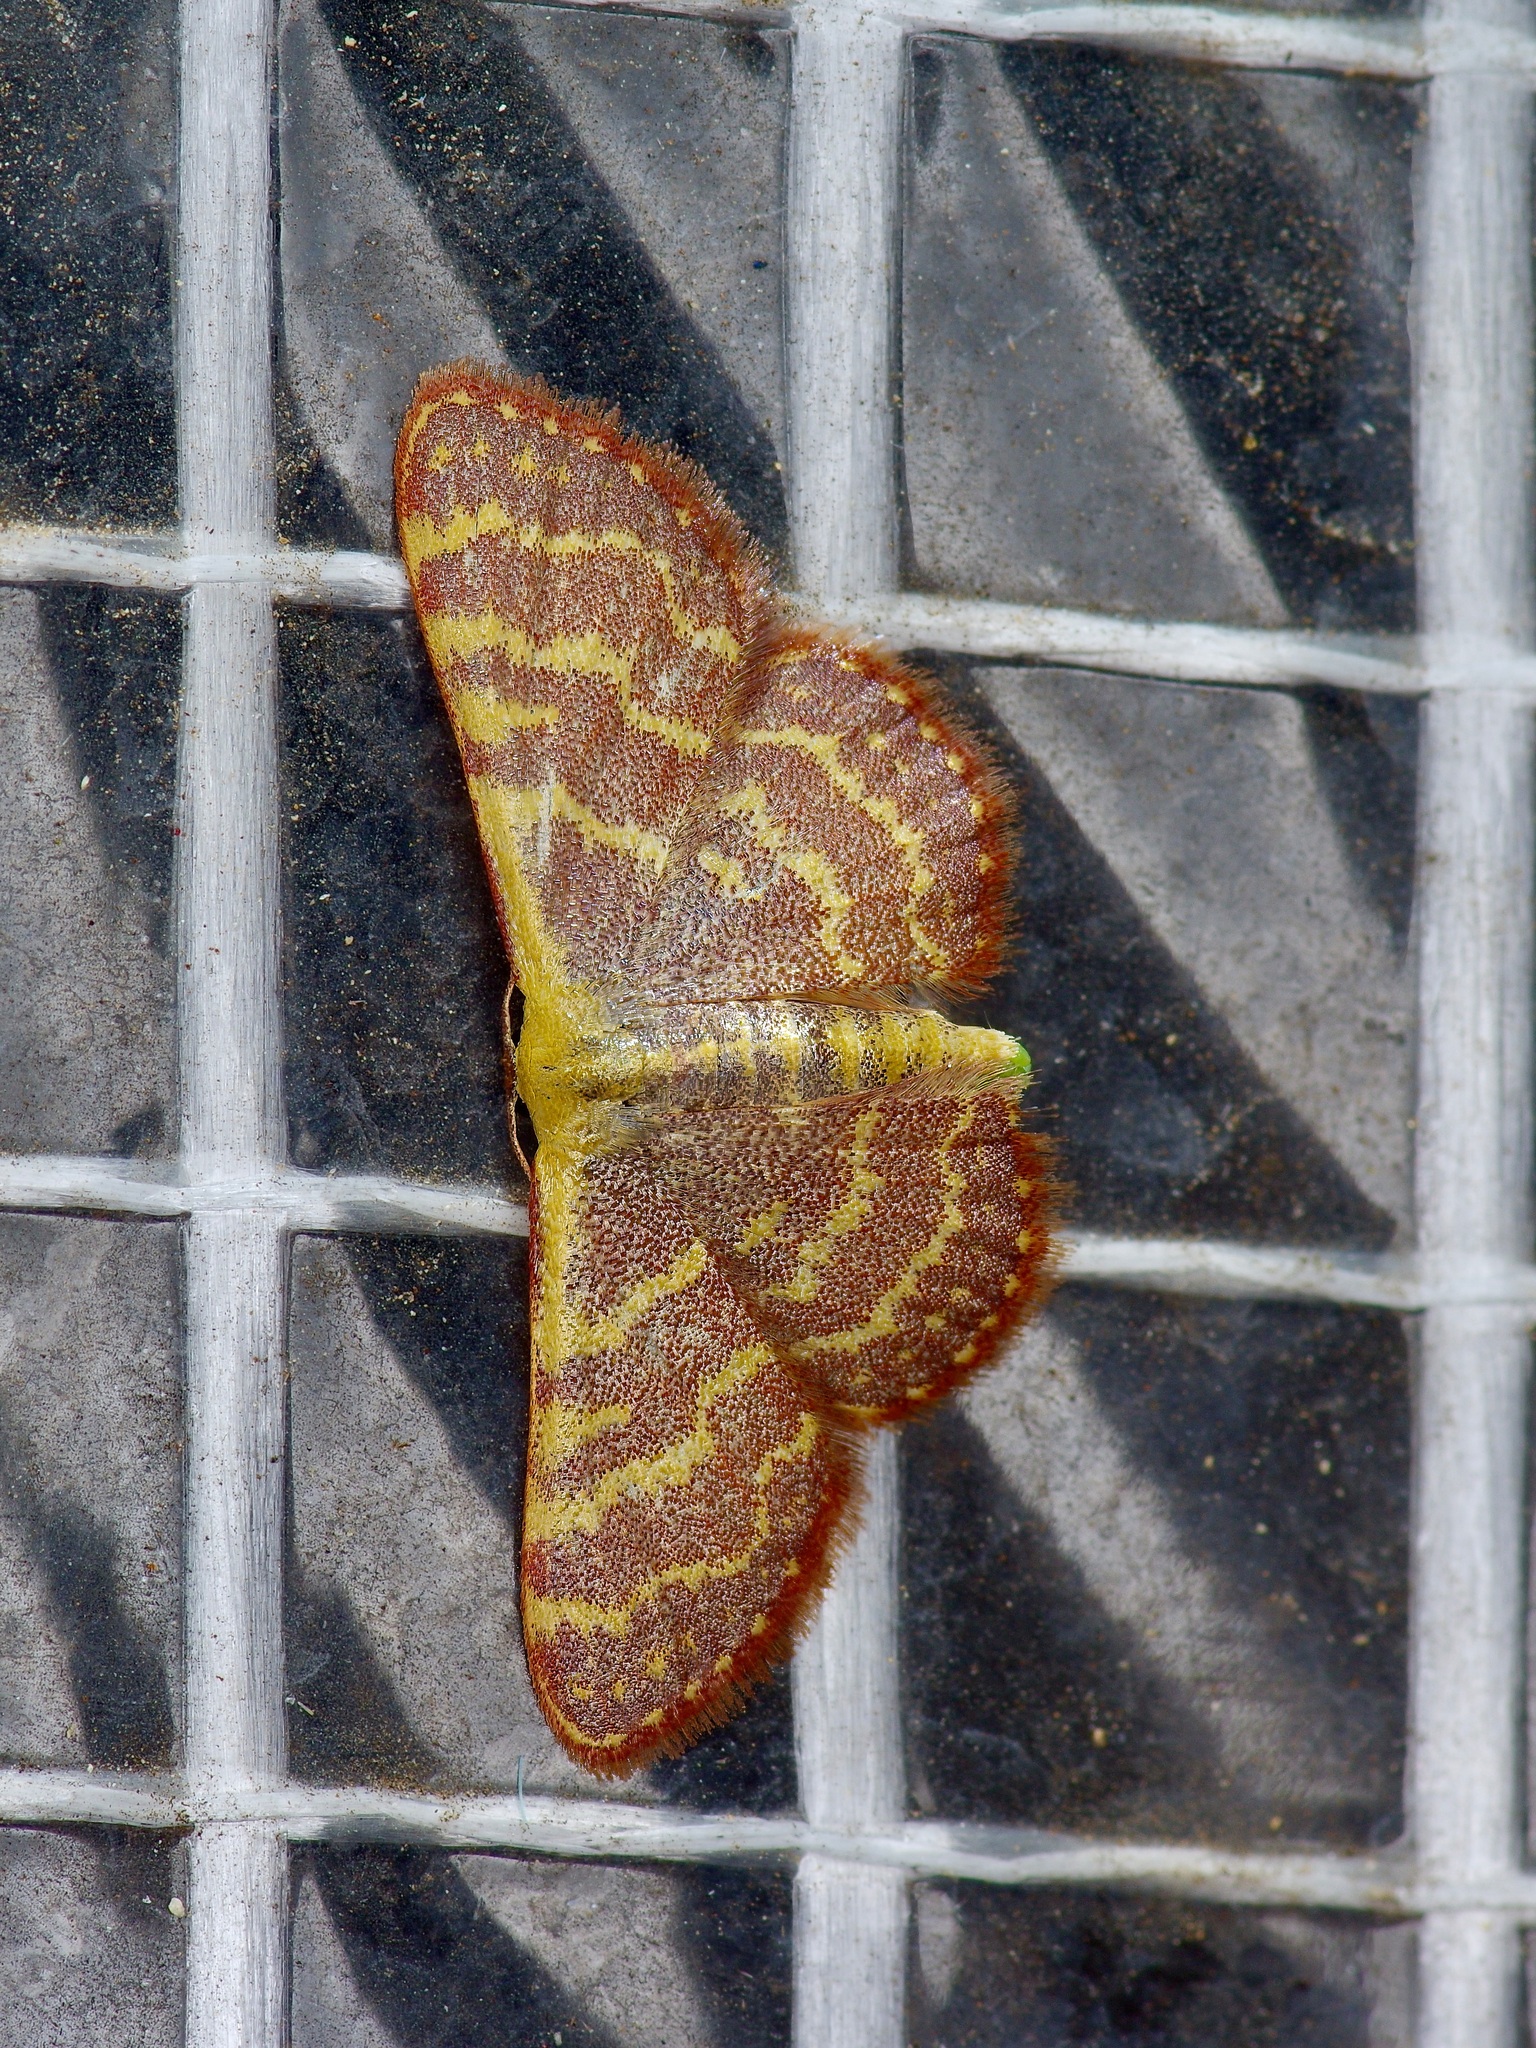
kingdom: Animalia
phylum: Arthropoda
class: Insecta
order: Lepidoptera
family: Geometridae
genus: Leptostales
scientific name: Leptostales pannaria
